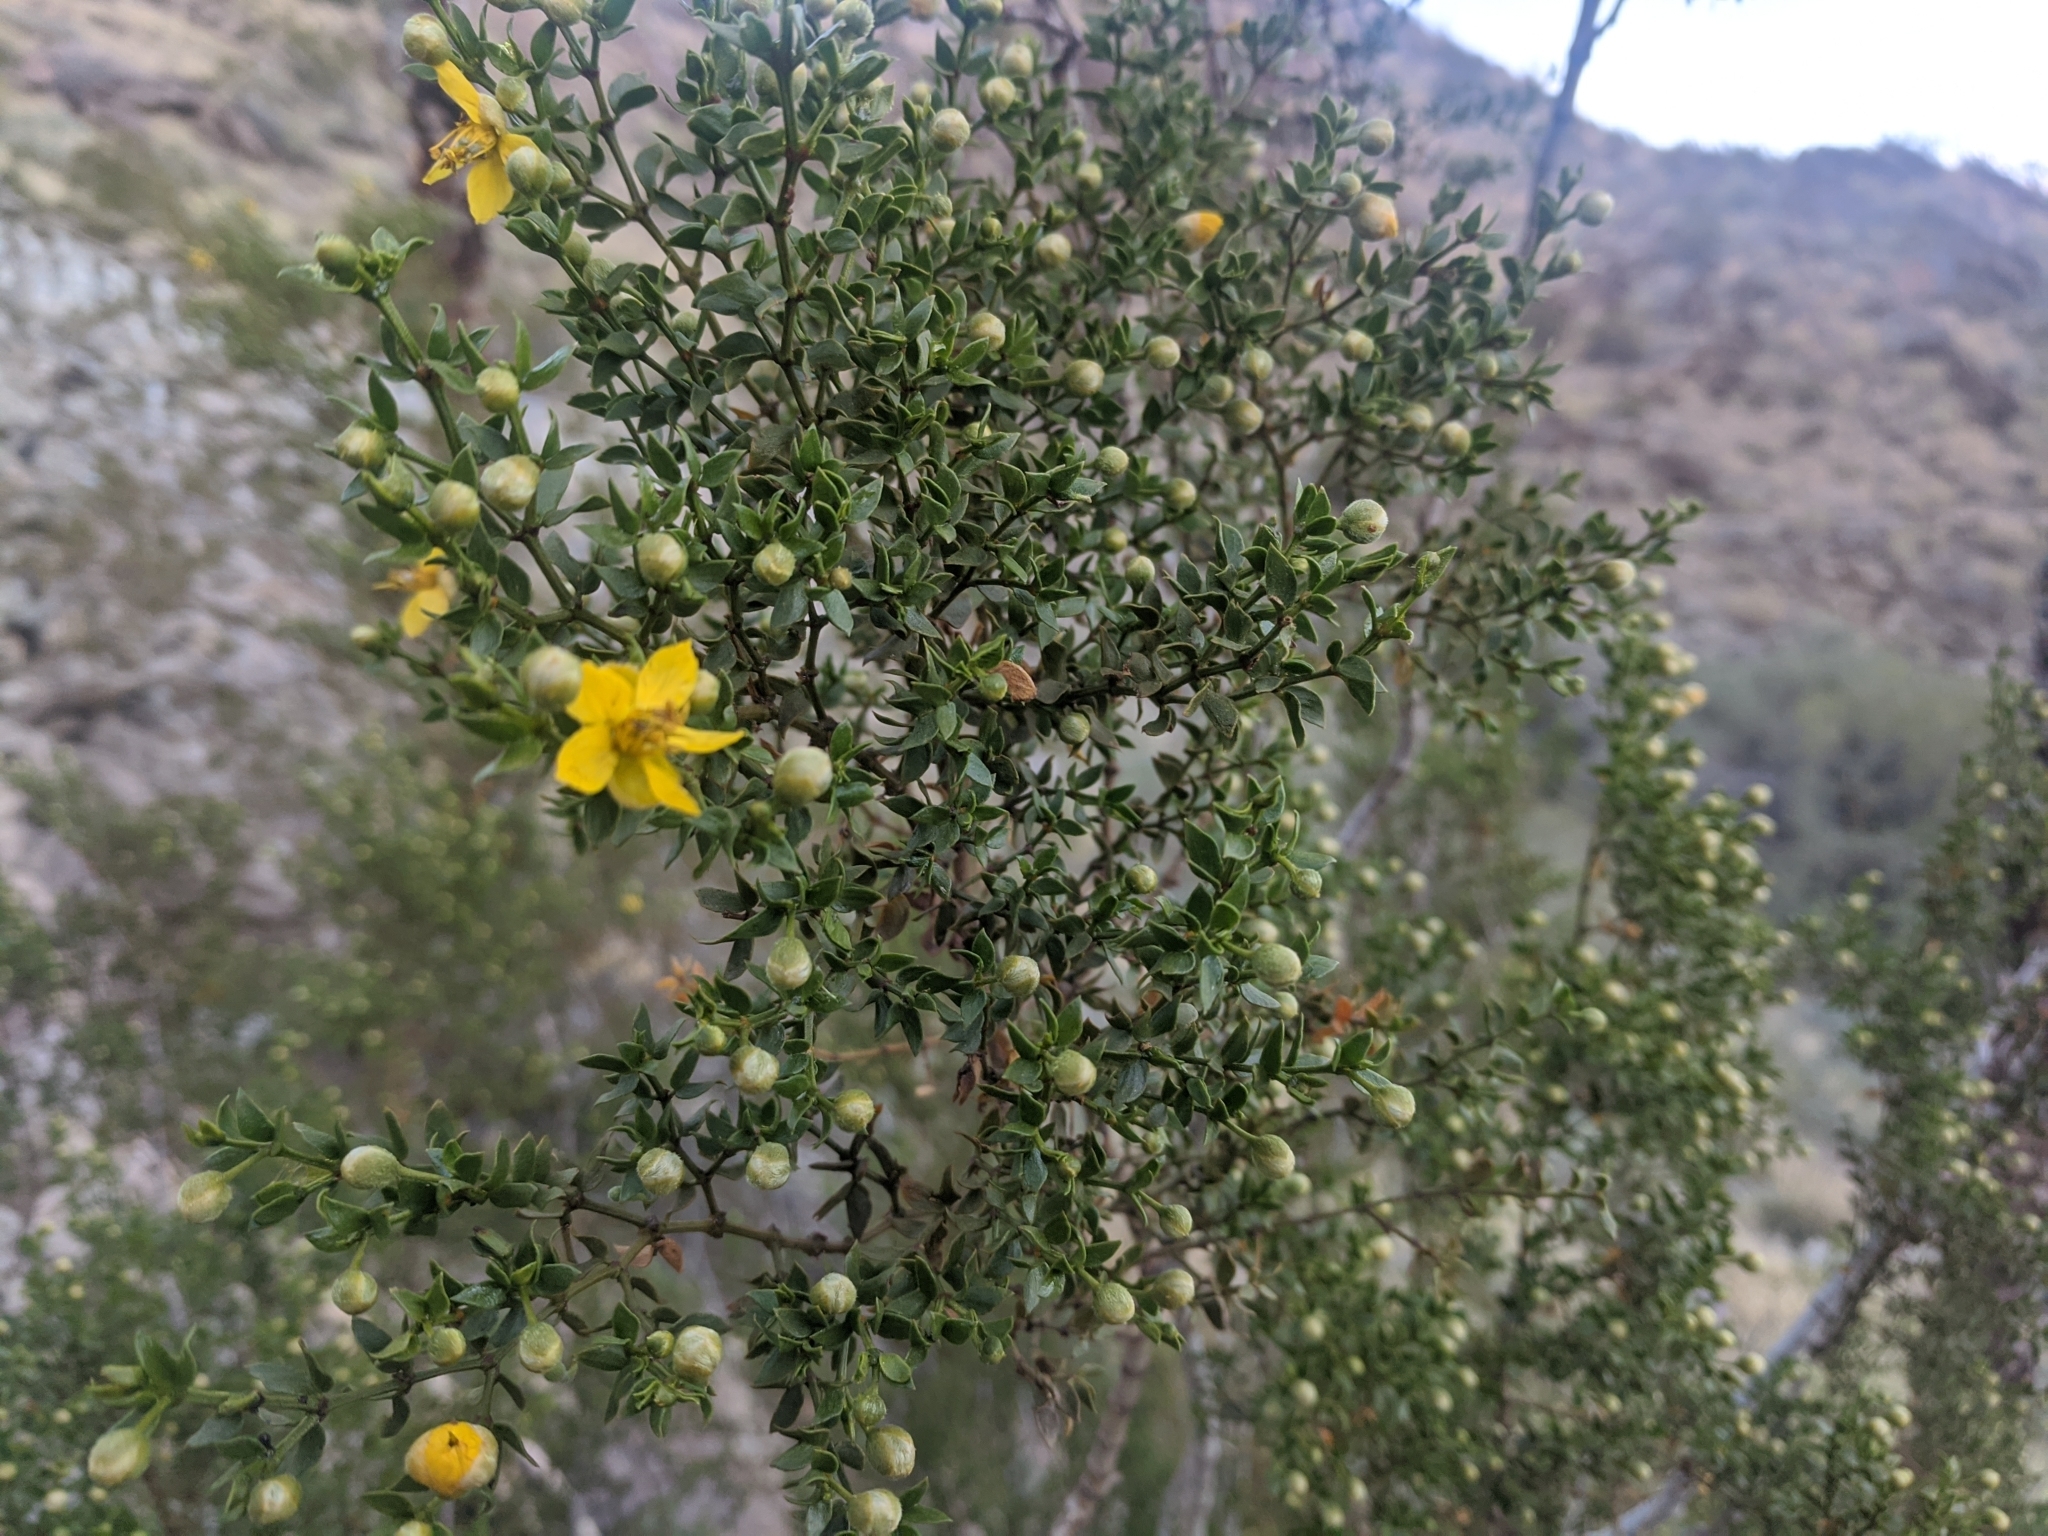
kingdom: Plantae
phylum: Tracheophyta
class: Magnoliopsida
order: Zygophyllales
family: Zygophyllaceae
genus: Larrea
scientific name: Larrea tridentata
